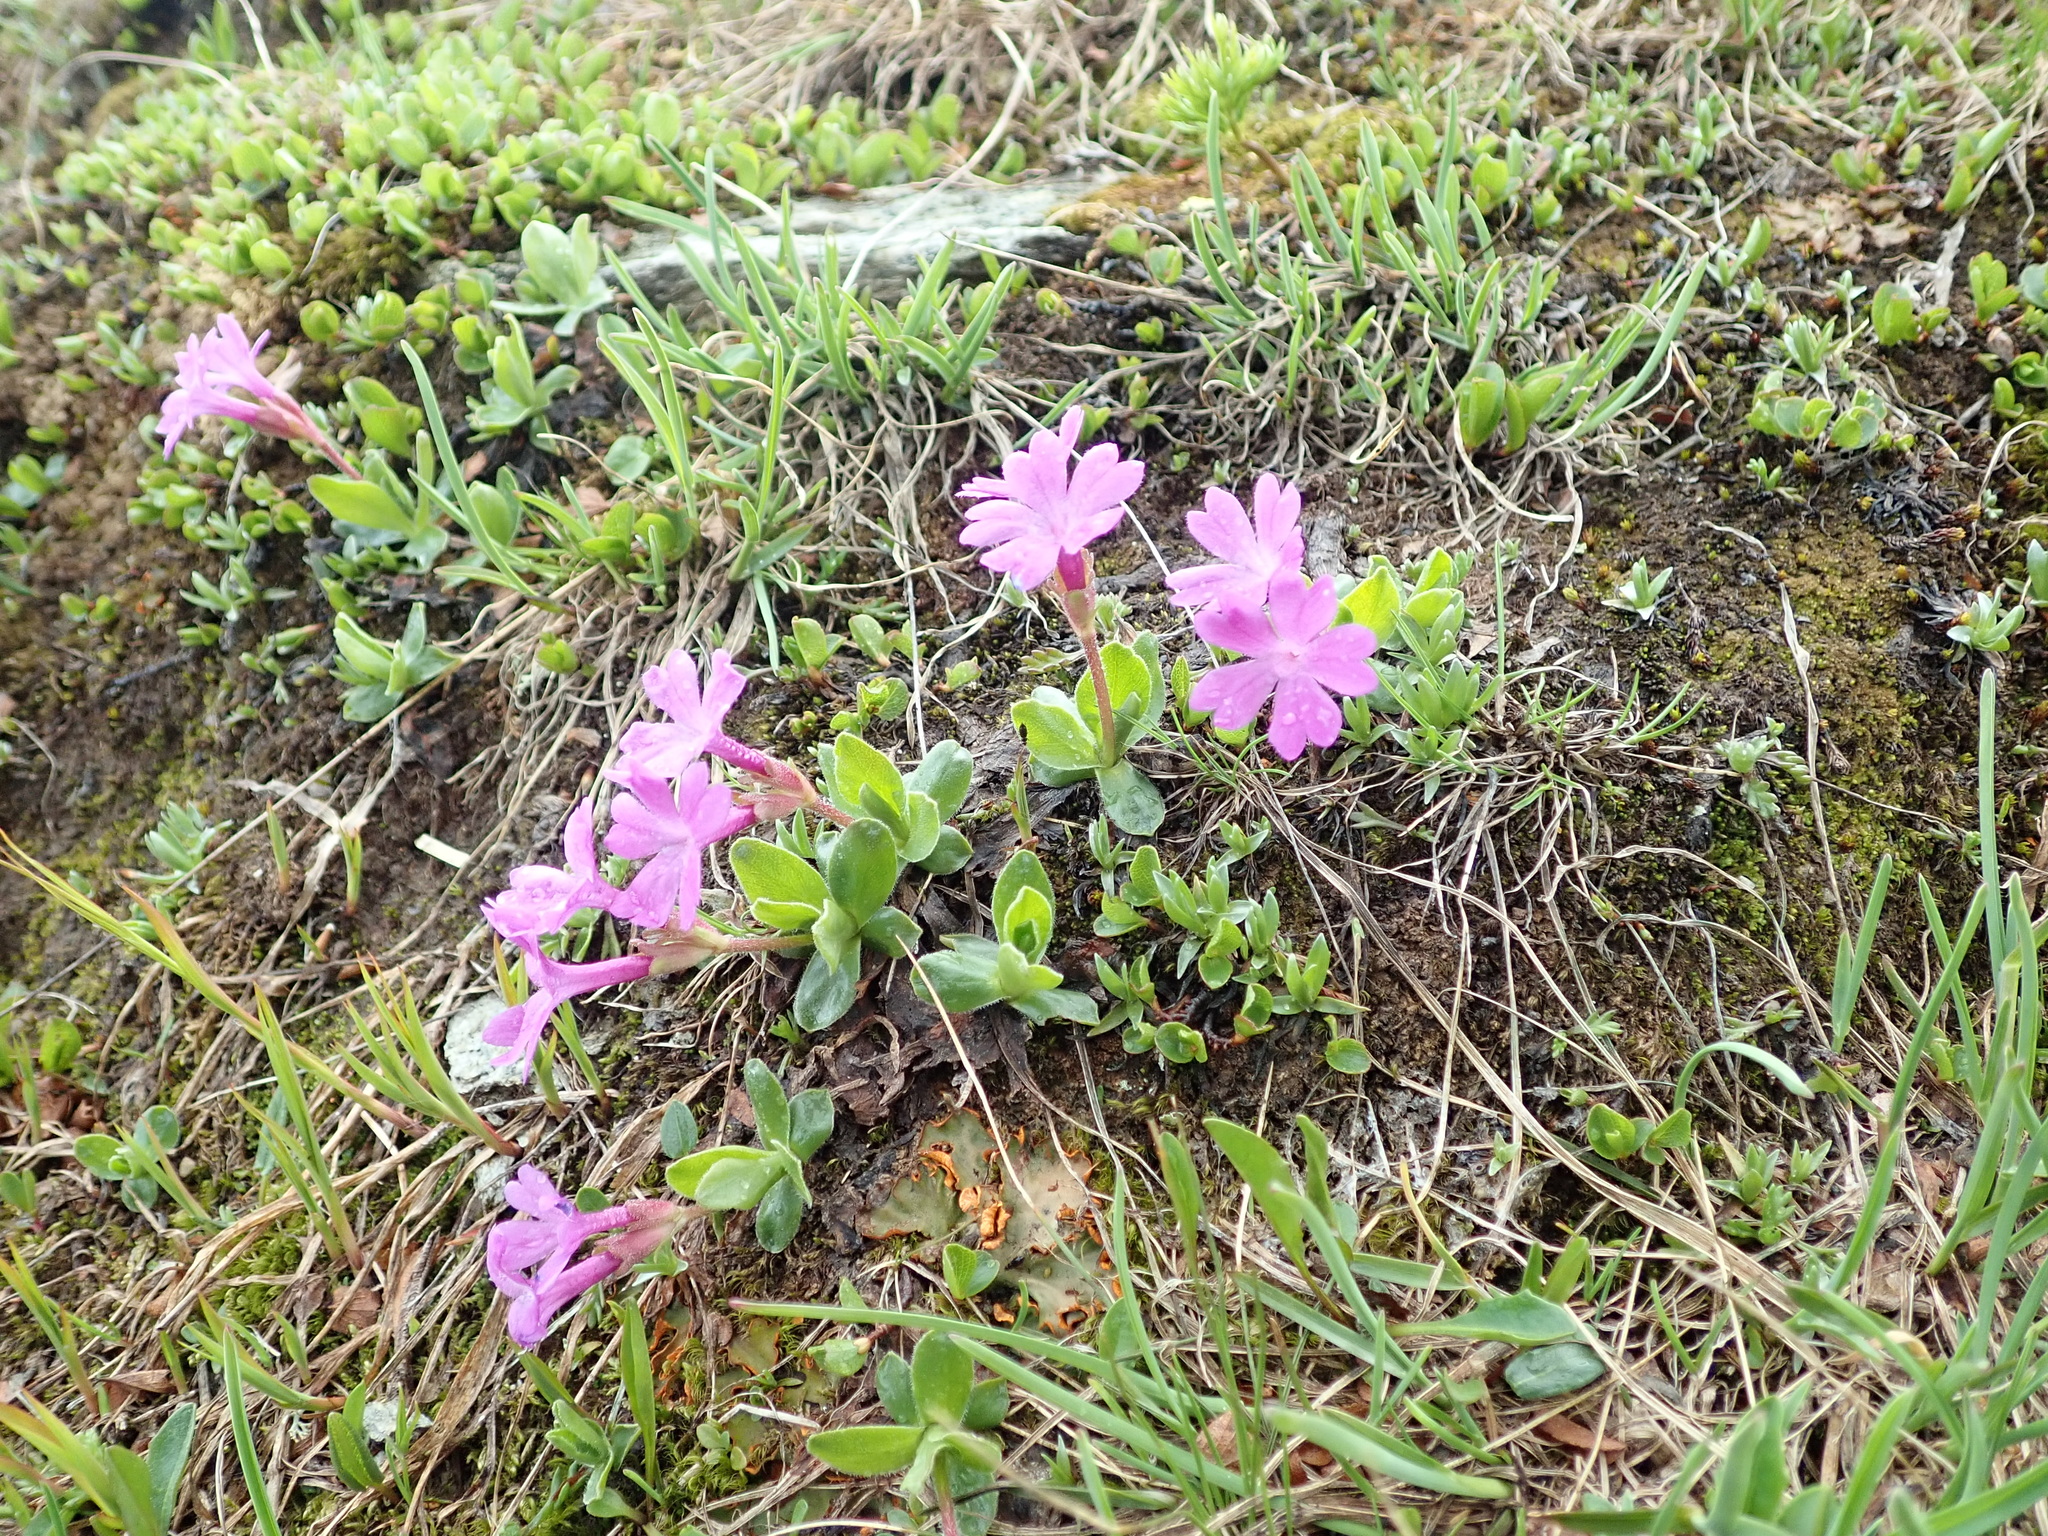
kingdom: Plantae
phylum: Tracheophyta
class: Magnoliopsida
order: Ericales
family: Primulaceae
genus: Primula
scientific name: Primula integrifolia
